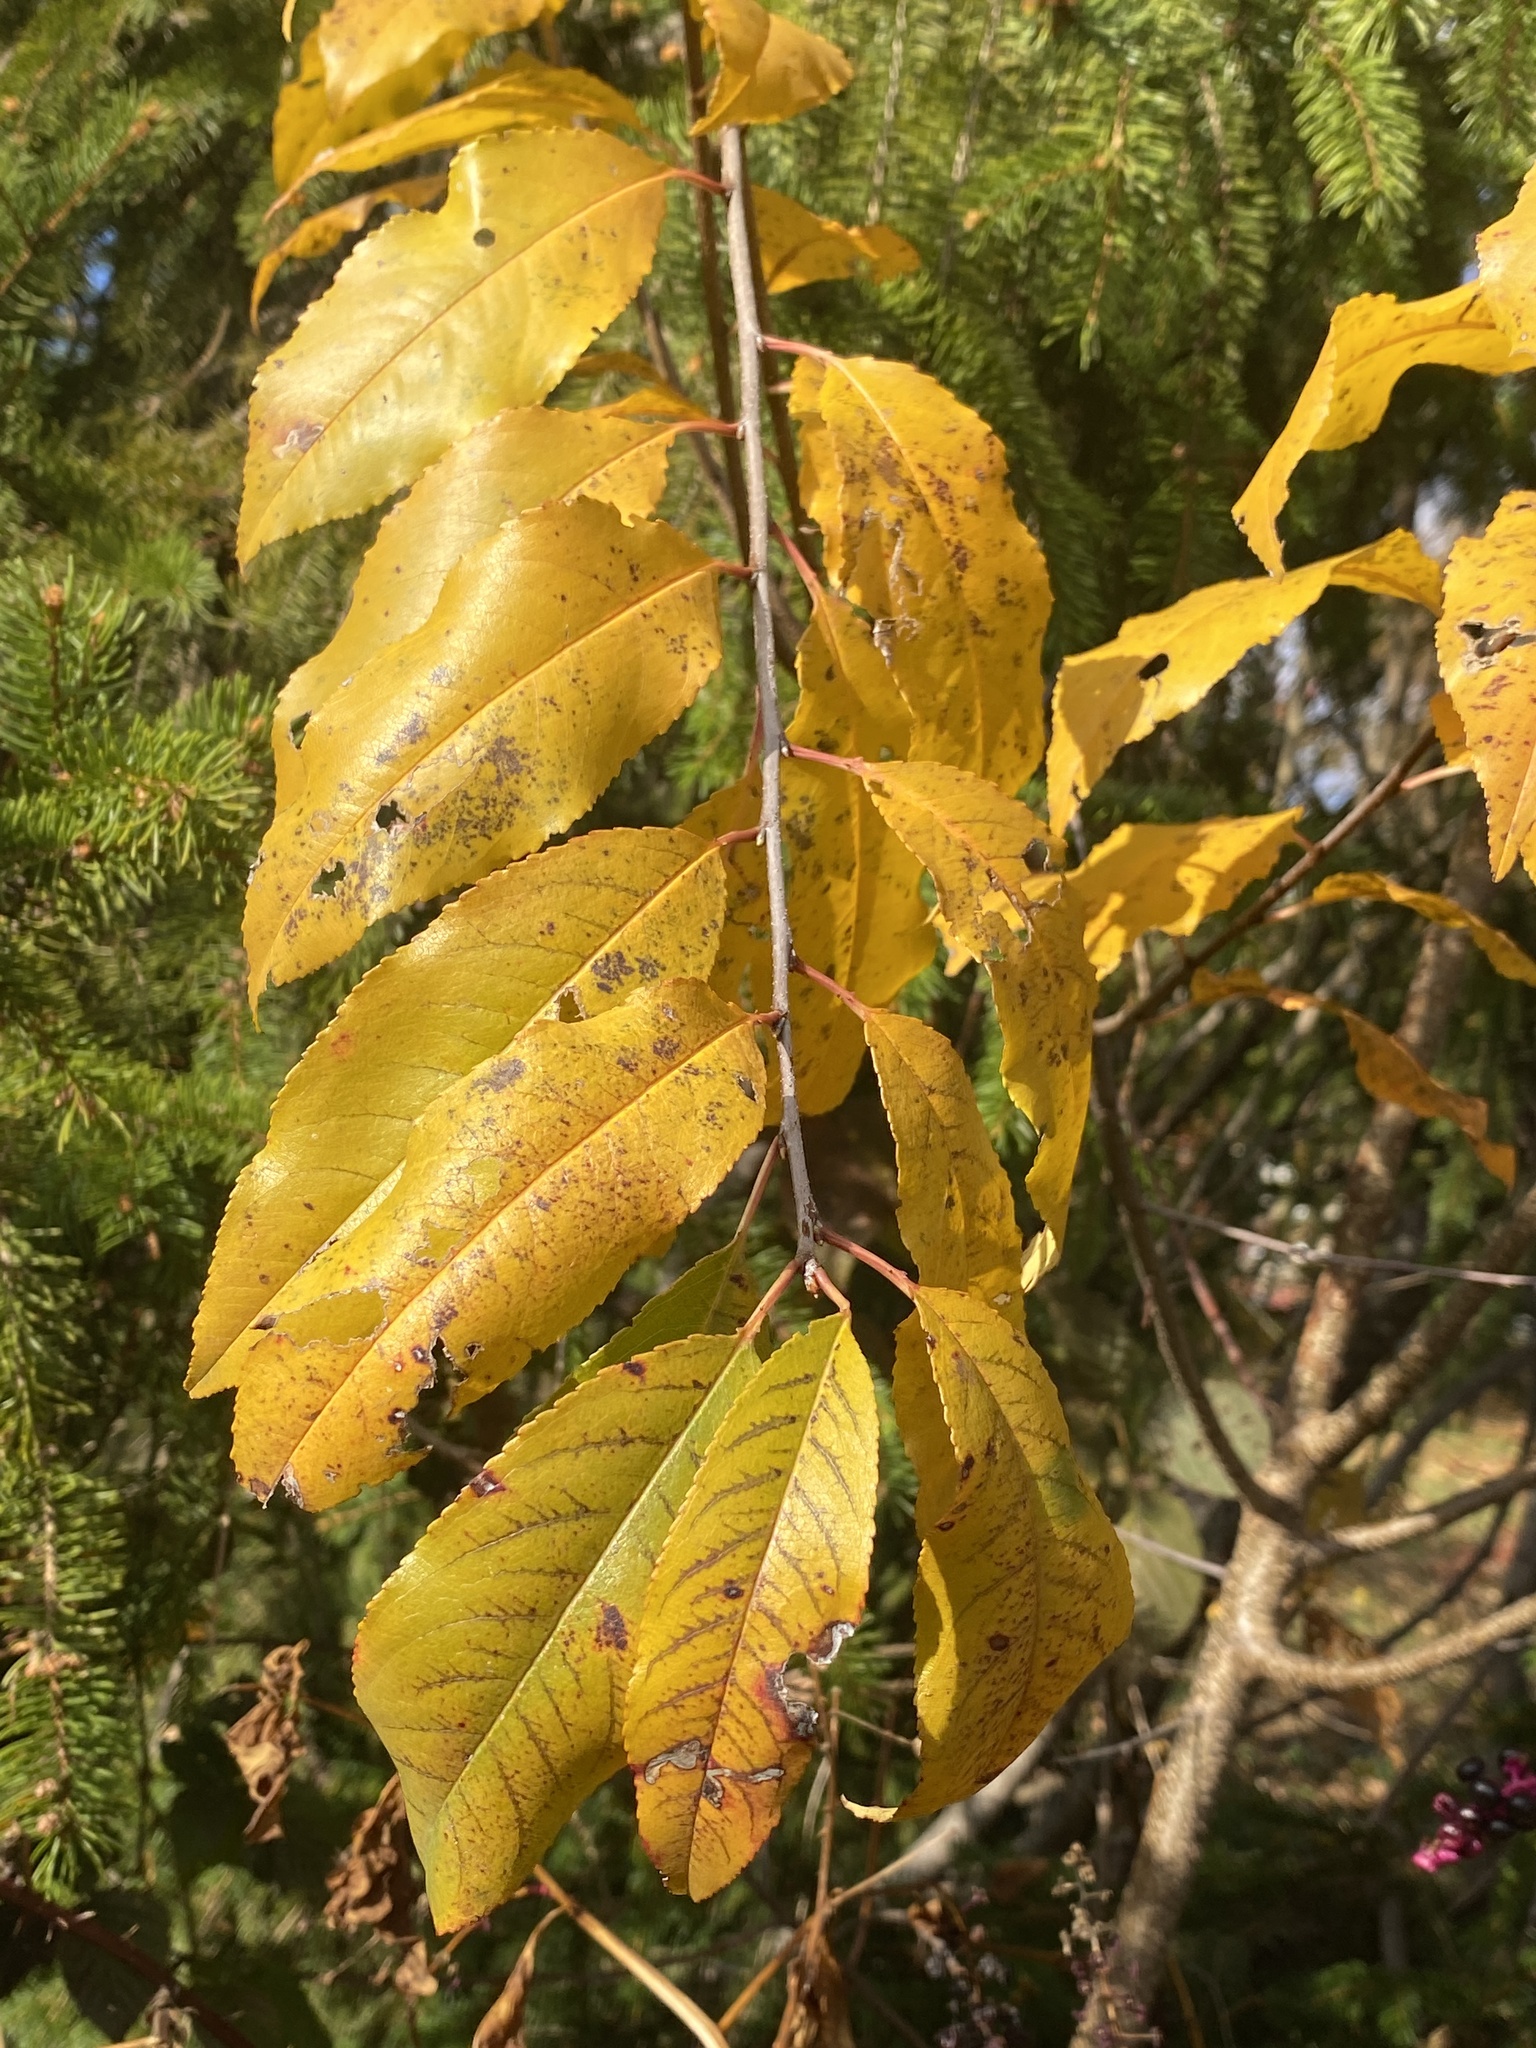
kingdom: Plantae
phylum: Tracheophyta
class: Magnoliopsida
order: Rosales
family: Rosaceae
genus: Prunus
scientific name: Prunus serotina
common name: Black cherry
